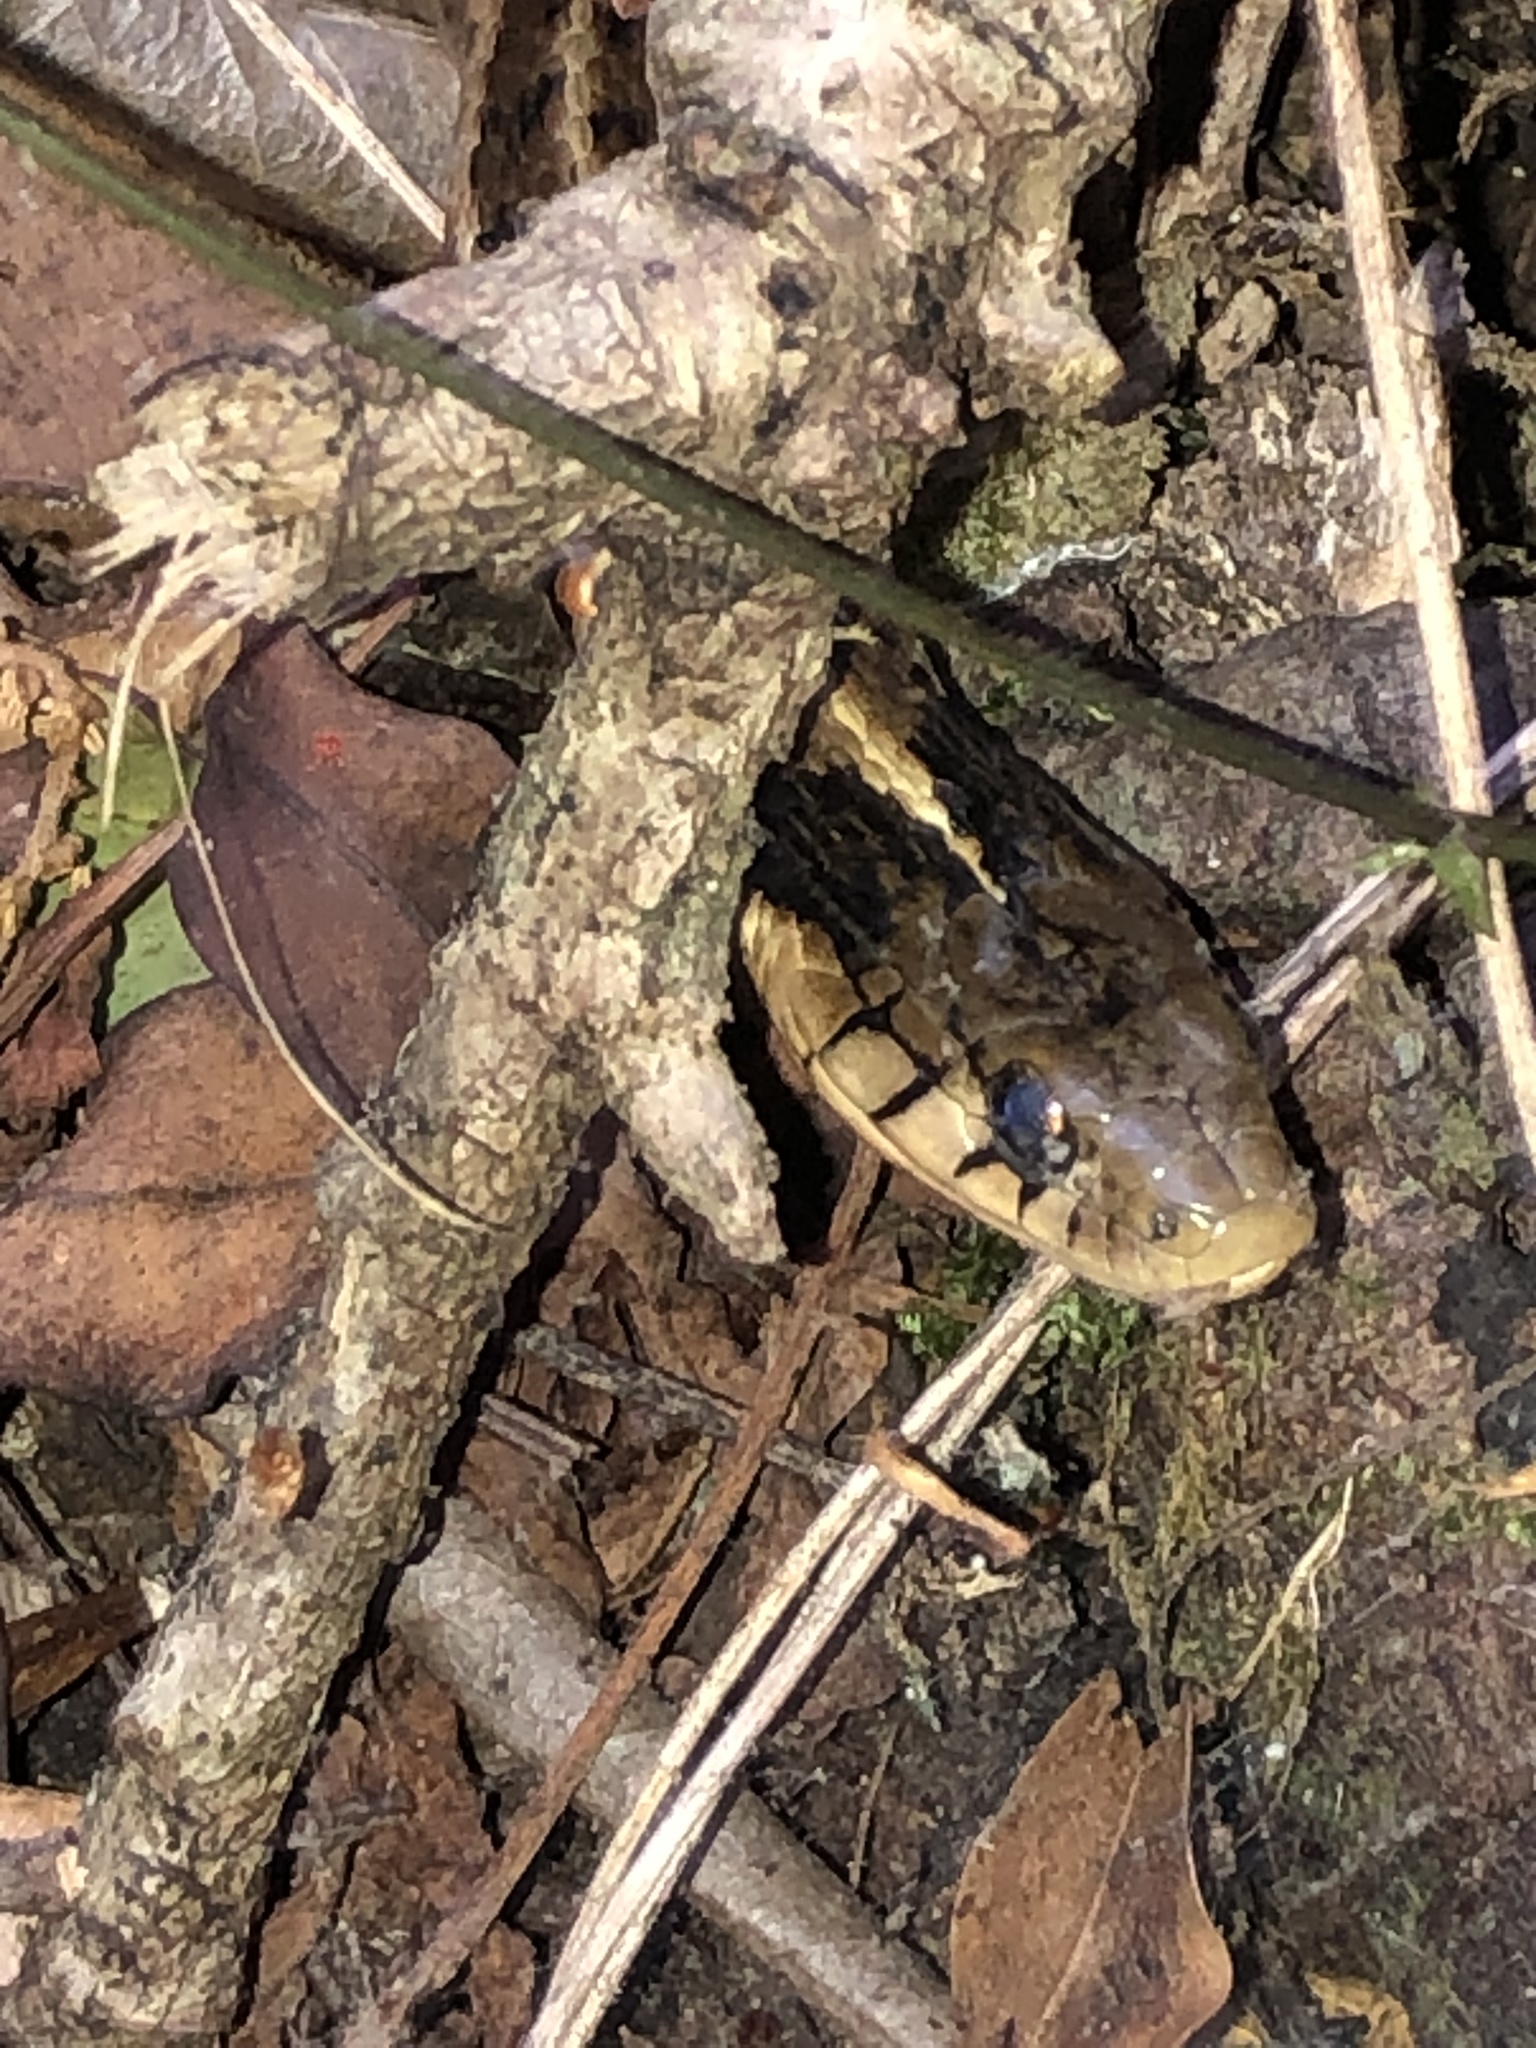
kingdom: Animalia
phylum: Chordata
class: Squamata
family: Colubridae
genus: Thamnophis
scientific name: Thamnophis fulvus
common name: Highland garter snake
